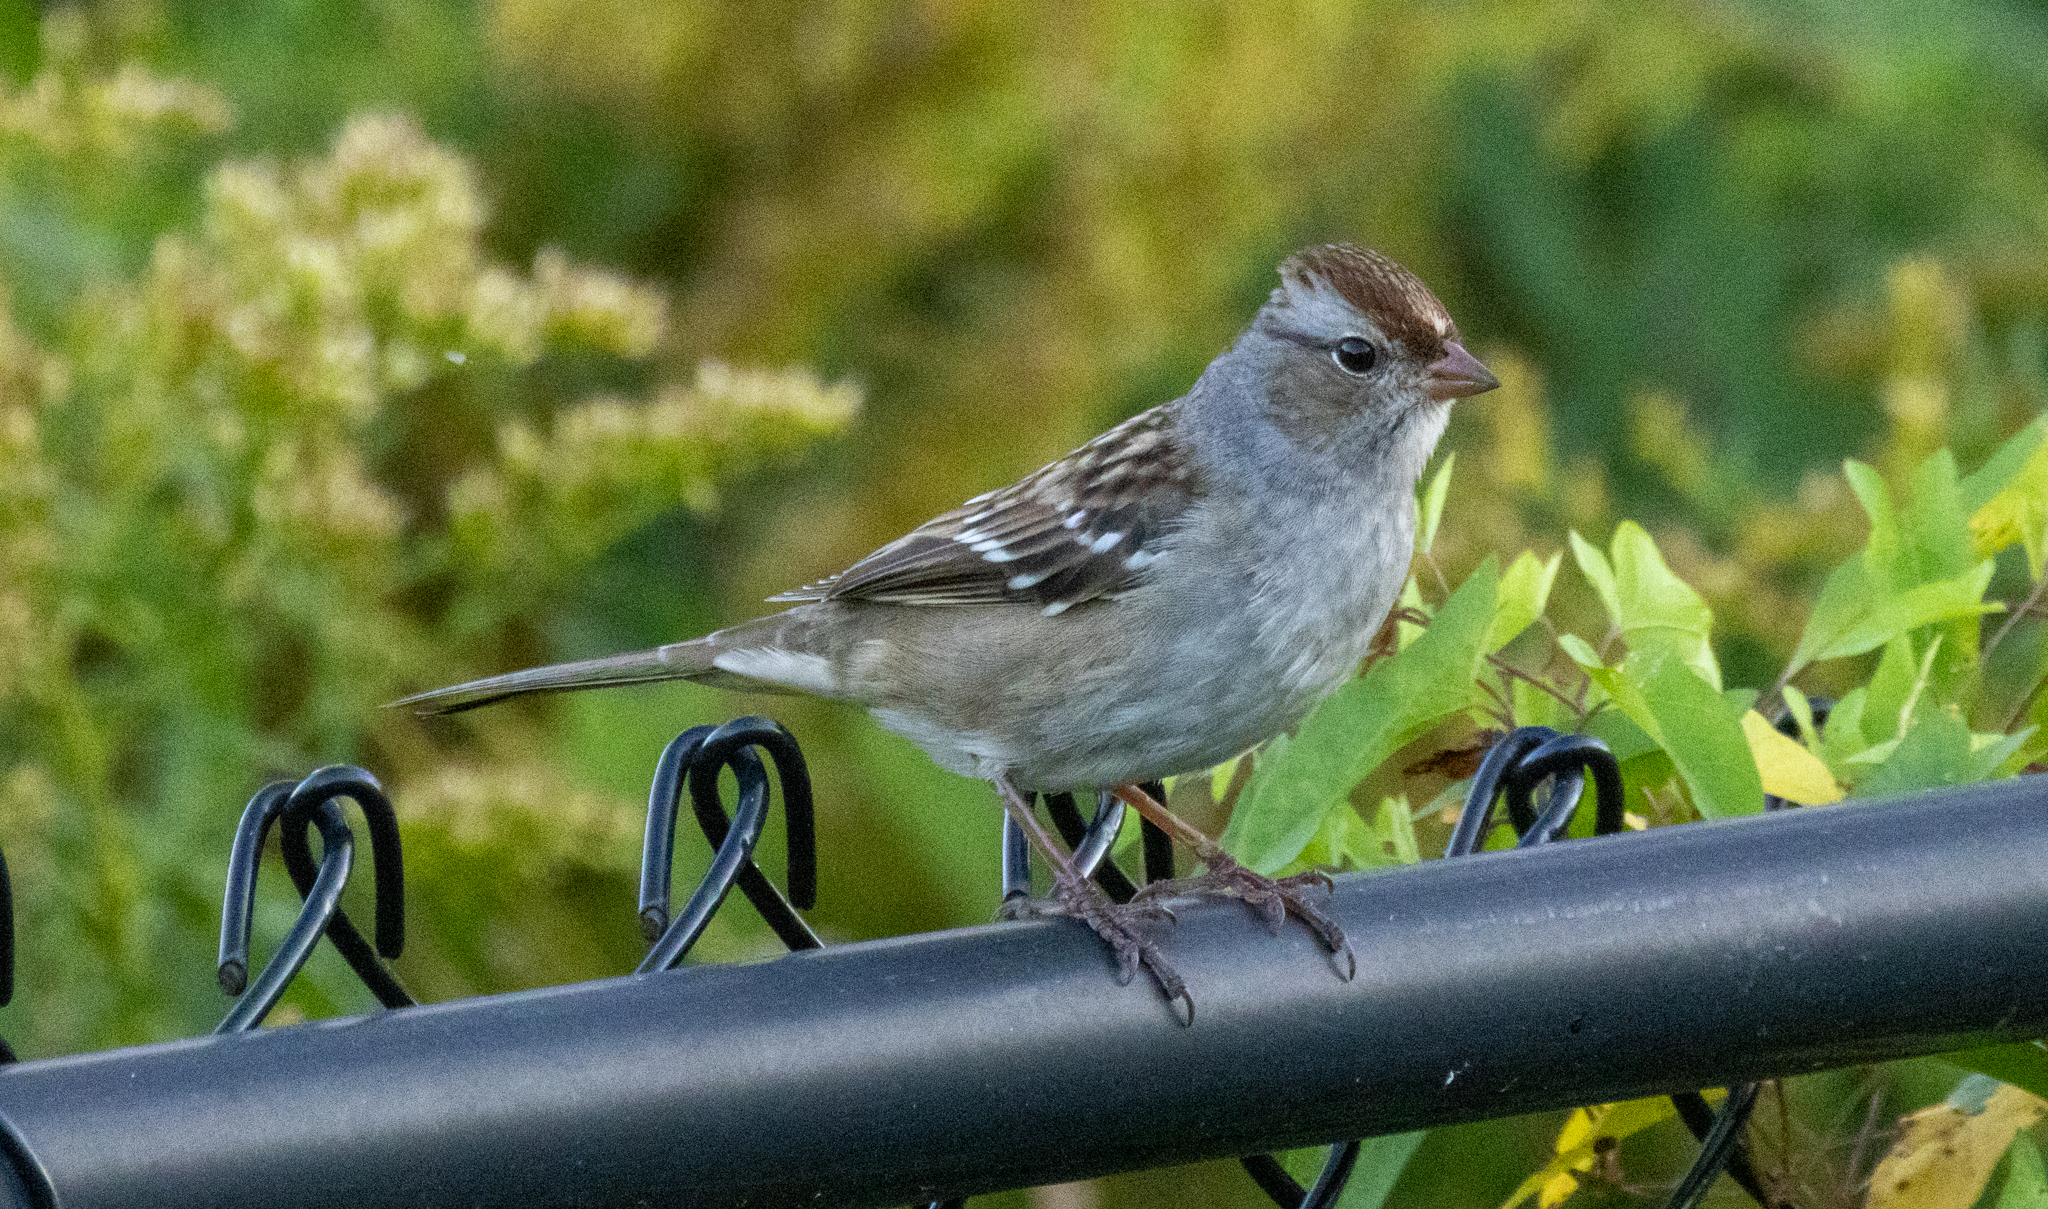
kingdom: Animalia
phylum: Chordata
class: Aves
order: Passeriformes
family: Passerellidae
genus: Zonotrichia
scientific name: Zonotrichia leucophrys
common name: White-crowned sparrow
